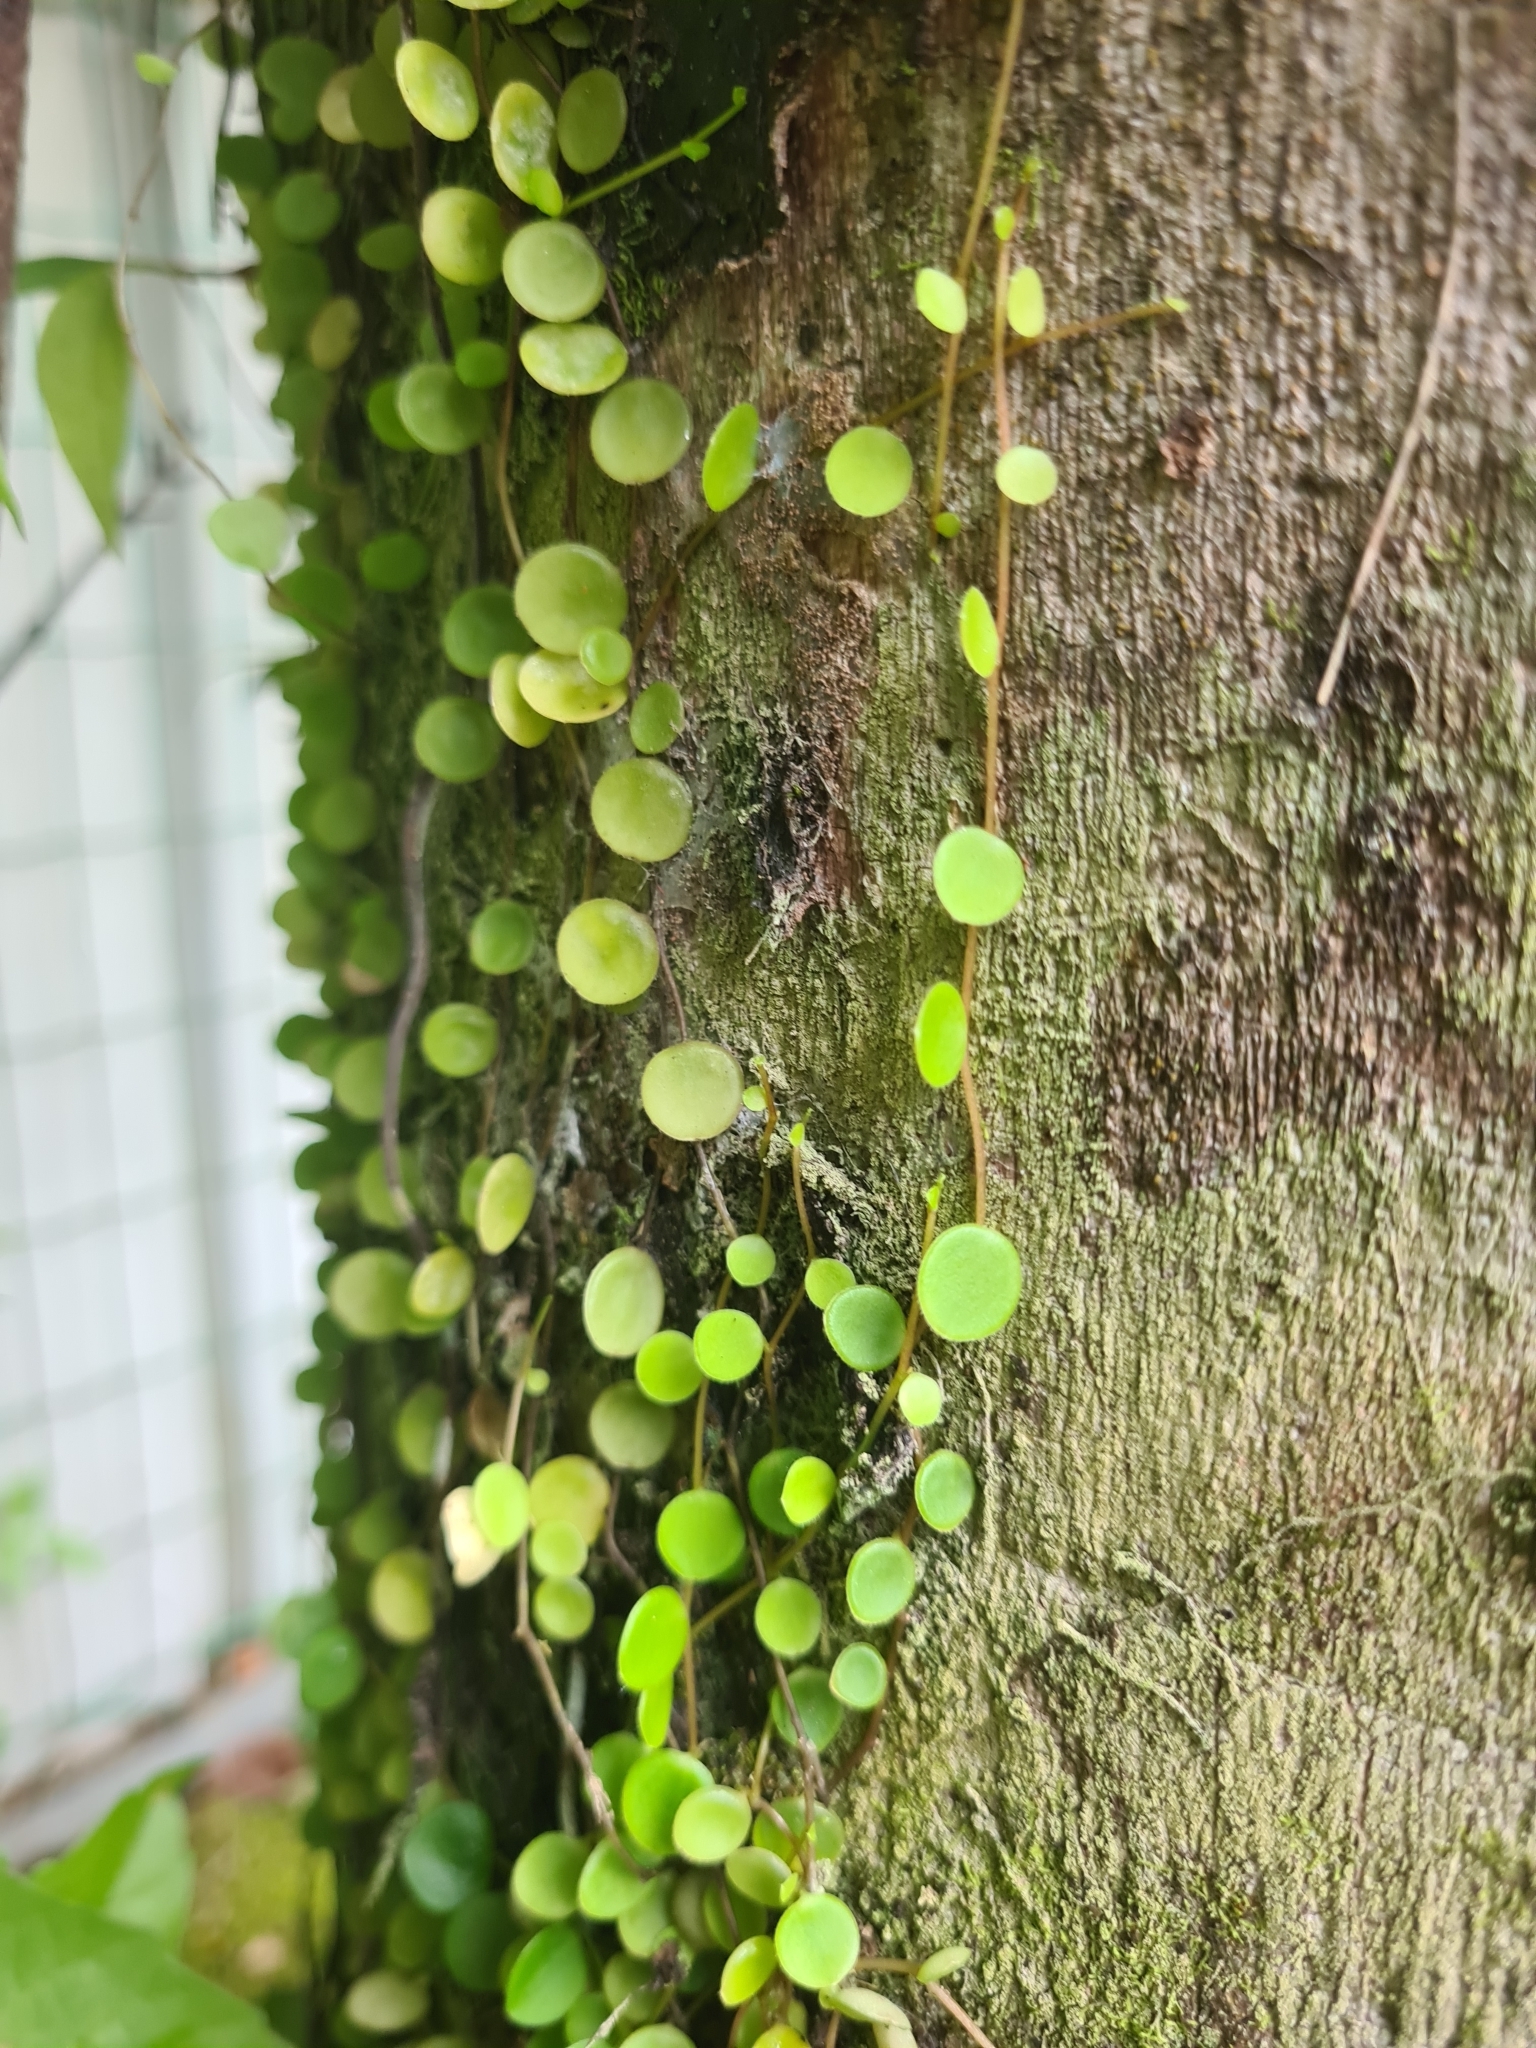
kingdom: Plantae
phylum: Tracheophyta
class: Magnoliopsida
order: Piperales
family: Piperaceae
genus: Peperomia
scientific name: Peperomia rotundifolia
